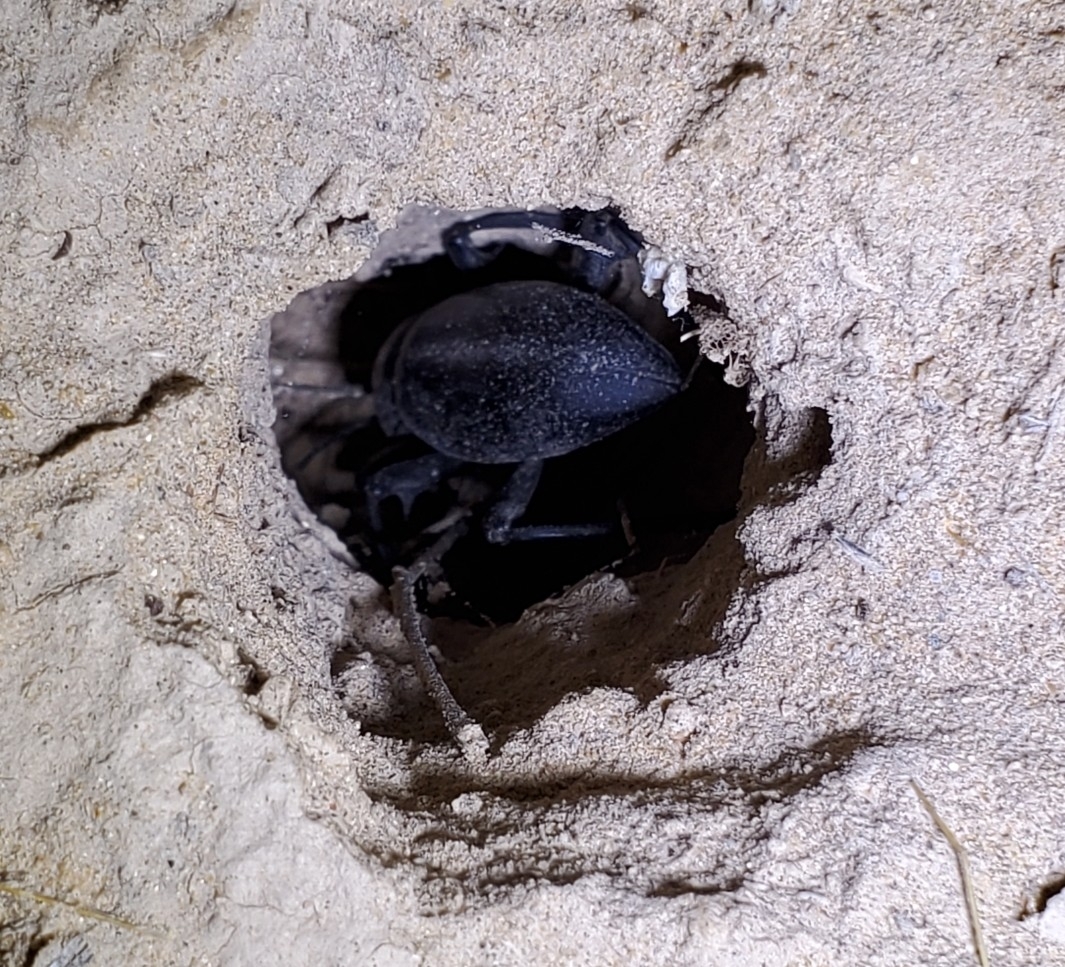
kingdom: Animalia
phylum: Arthropoda
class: Insecta
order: Coleoptera
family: Tenebrionidae
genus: Eleodes
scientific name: Eleodes armata
